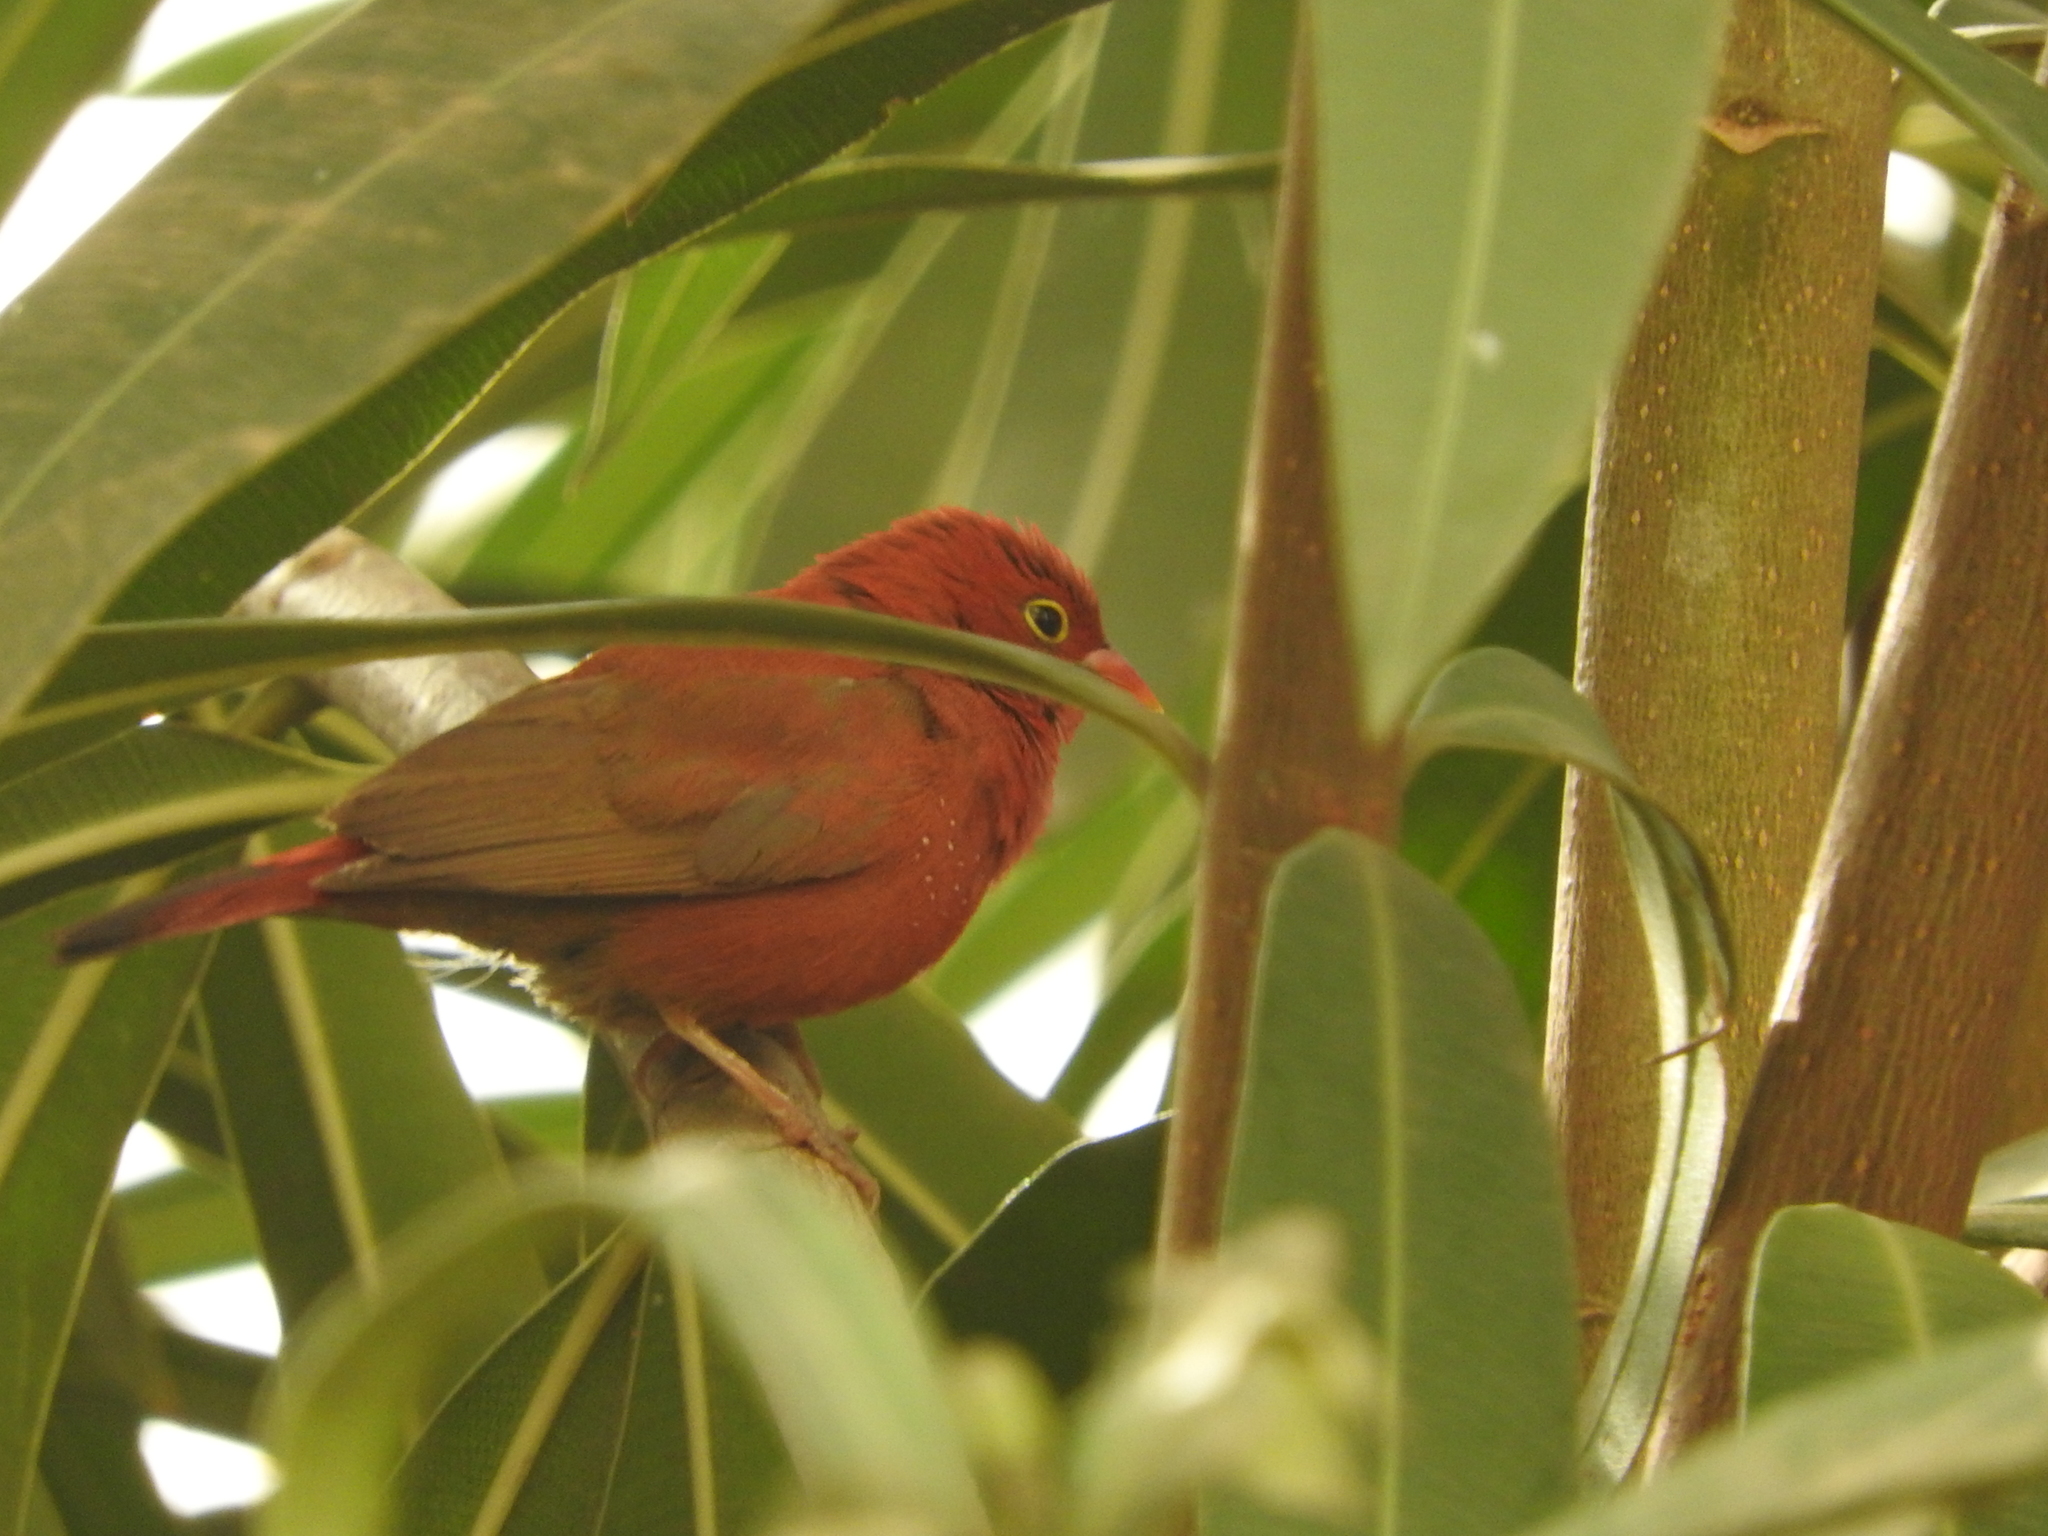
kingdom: Animalia
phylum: Chordata
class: Aves
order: Passeriformes
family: Estrildidae
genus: Lagonosticta
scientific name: Lagonosticta senegala
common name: Red-billed firefinch
